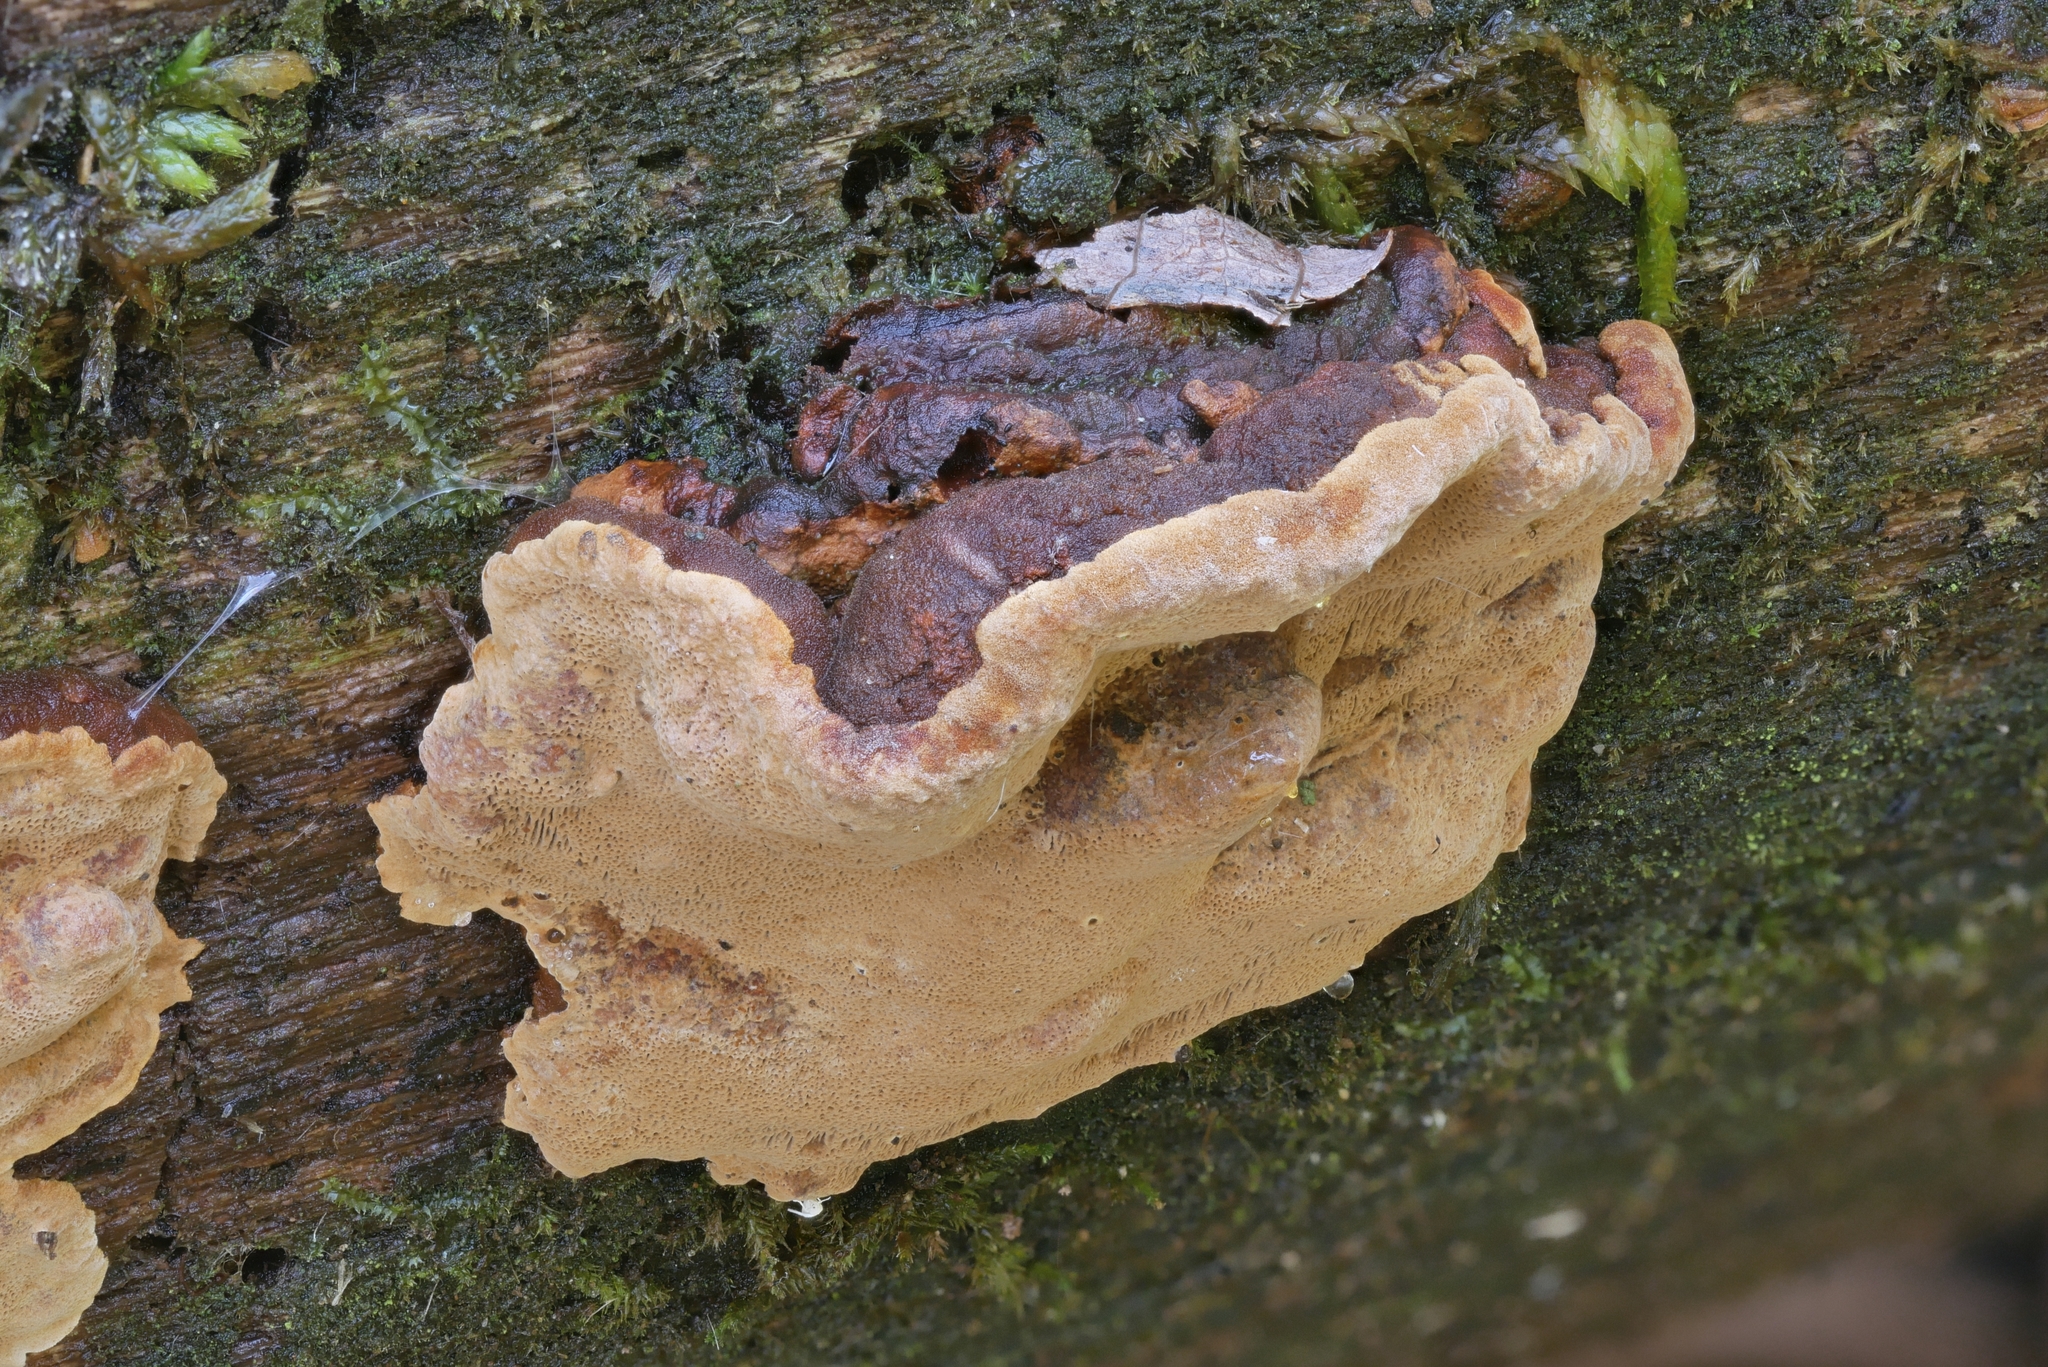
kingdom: Fungi
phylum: Basidiomycota
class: Agaricomycetes
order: Hymenochaetales
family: Hymenochaetaceae
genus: Phellinopsis
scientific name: Phellinopsis conchata
